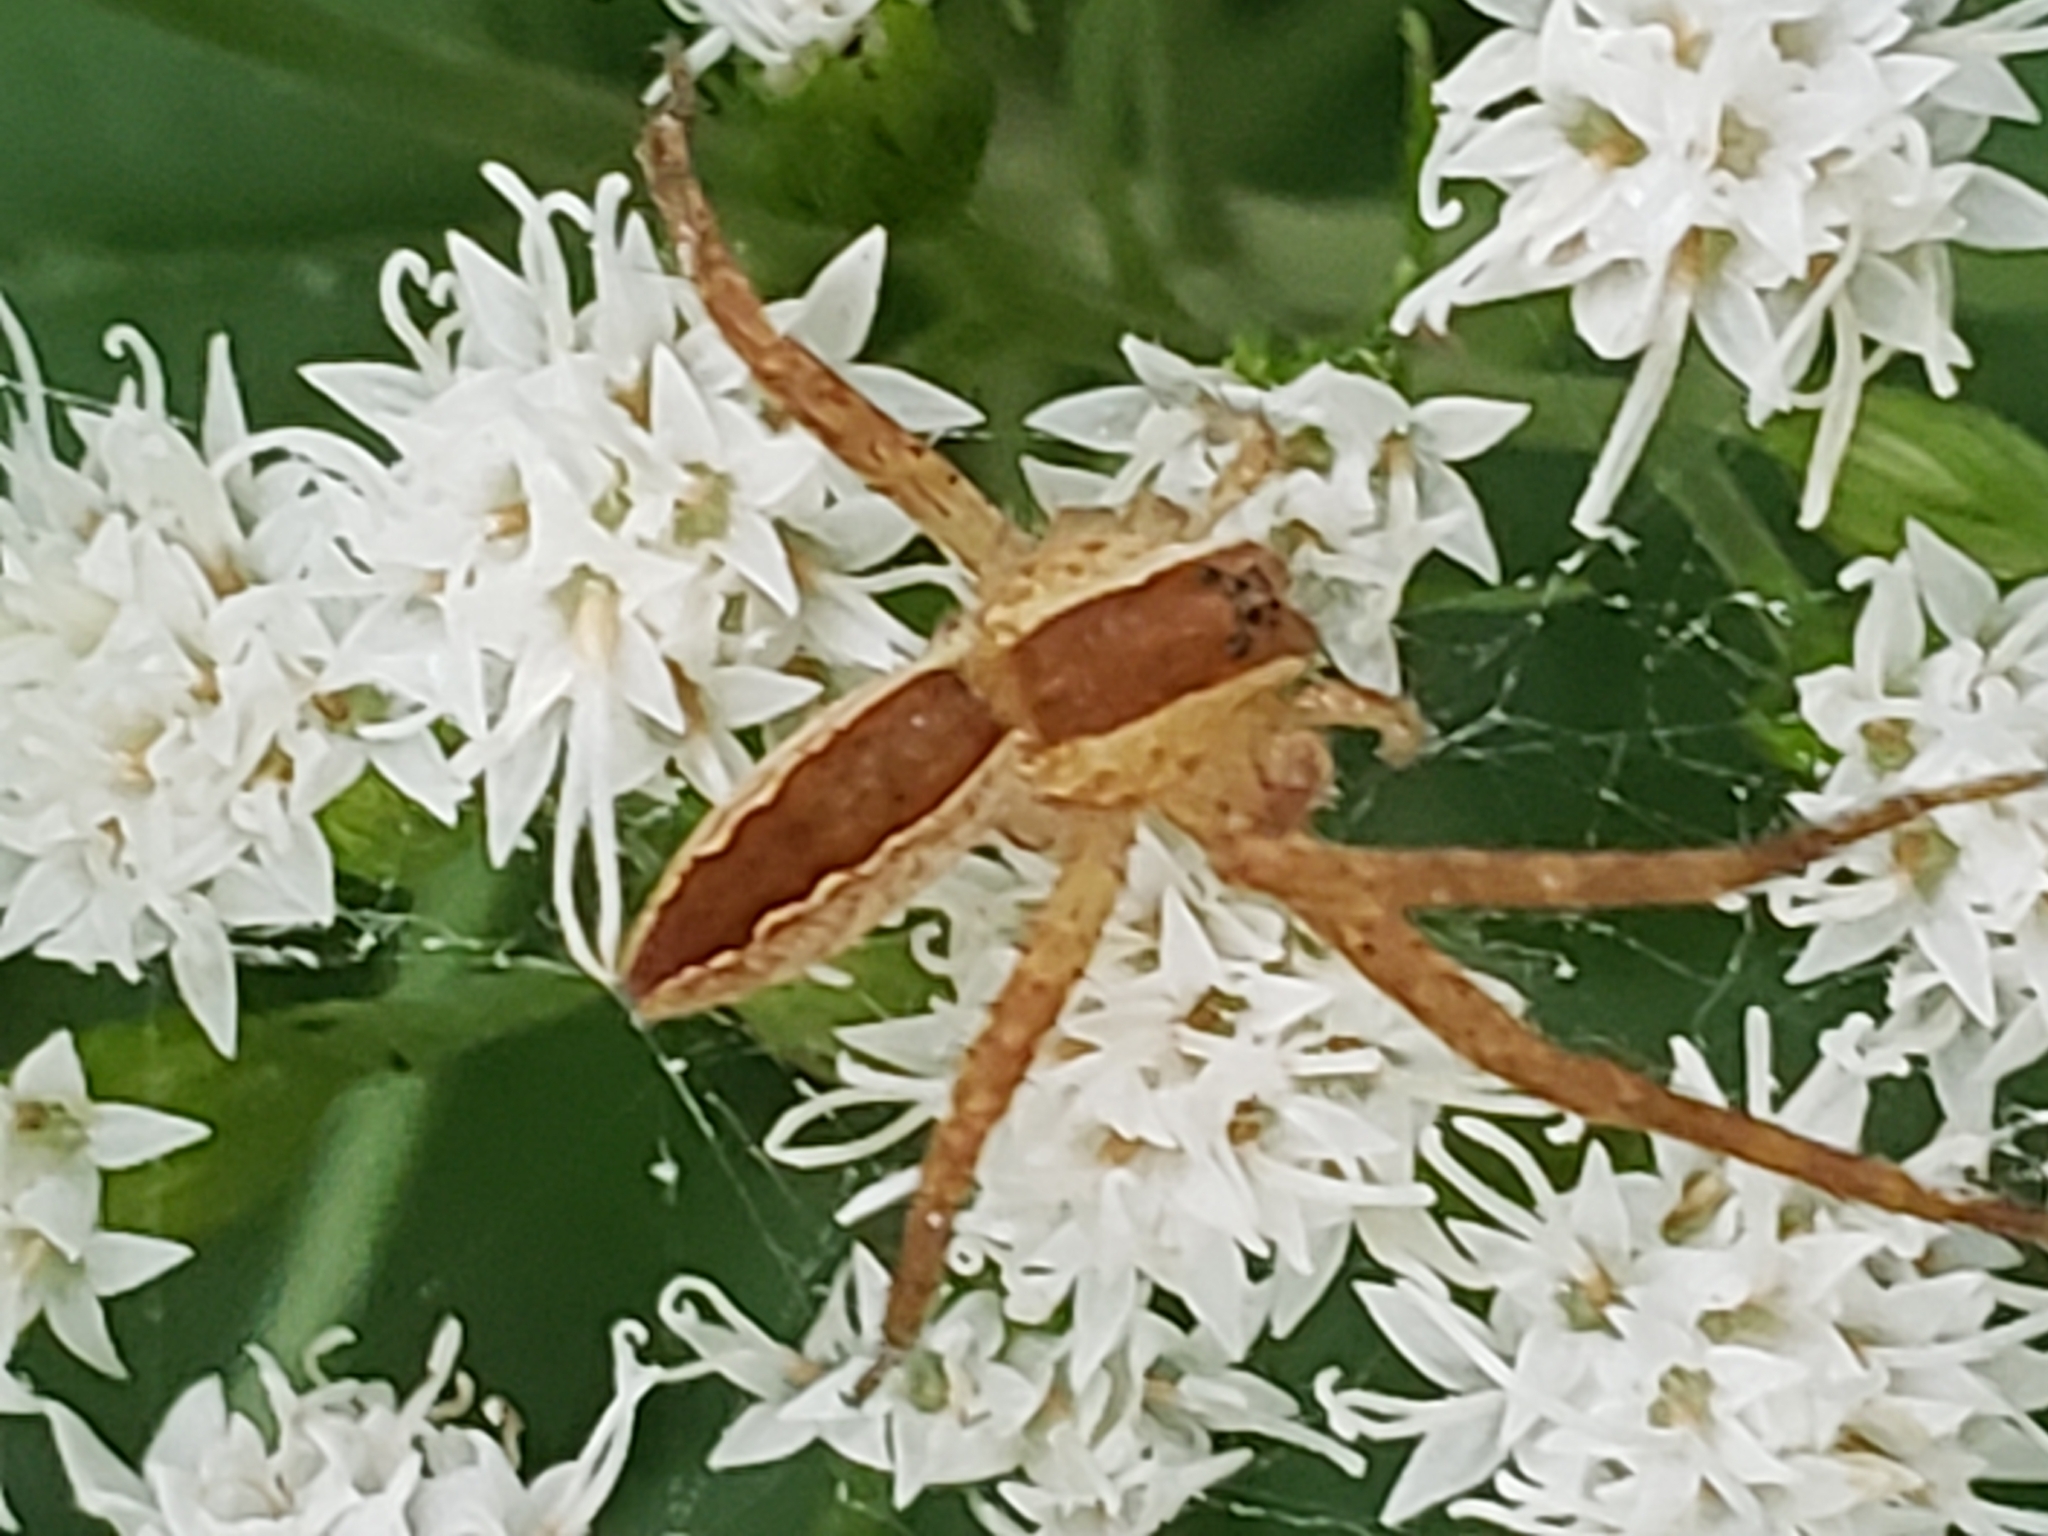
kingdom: Animalia
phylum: Arthropoda
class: Arachnida
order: Araneae
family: Pisauridae
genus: Pisaurina
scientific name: Pisaurina mira
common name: American nursery web spider
